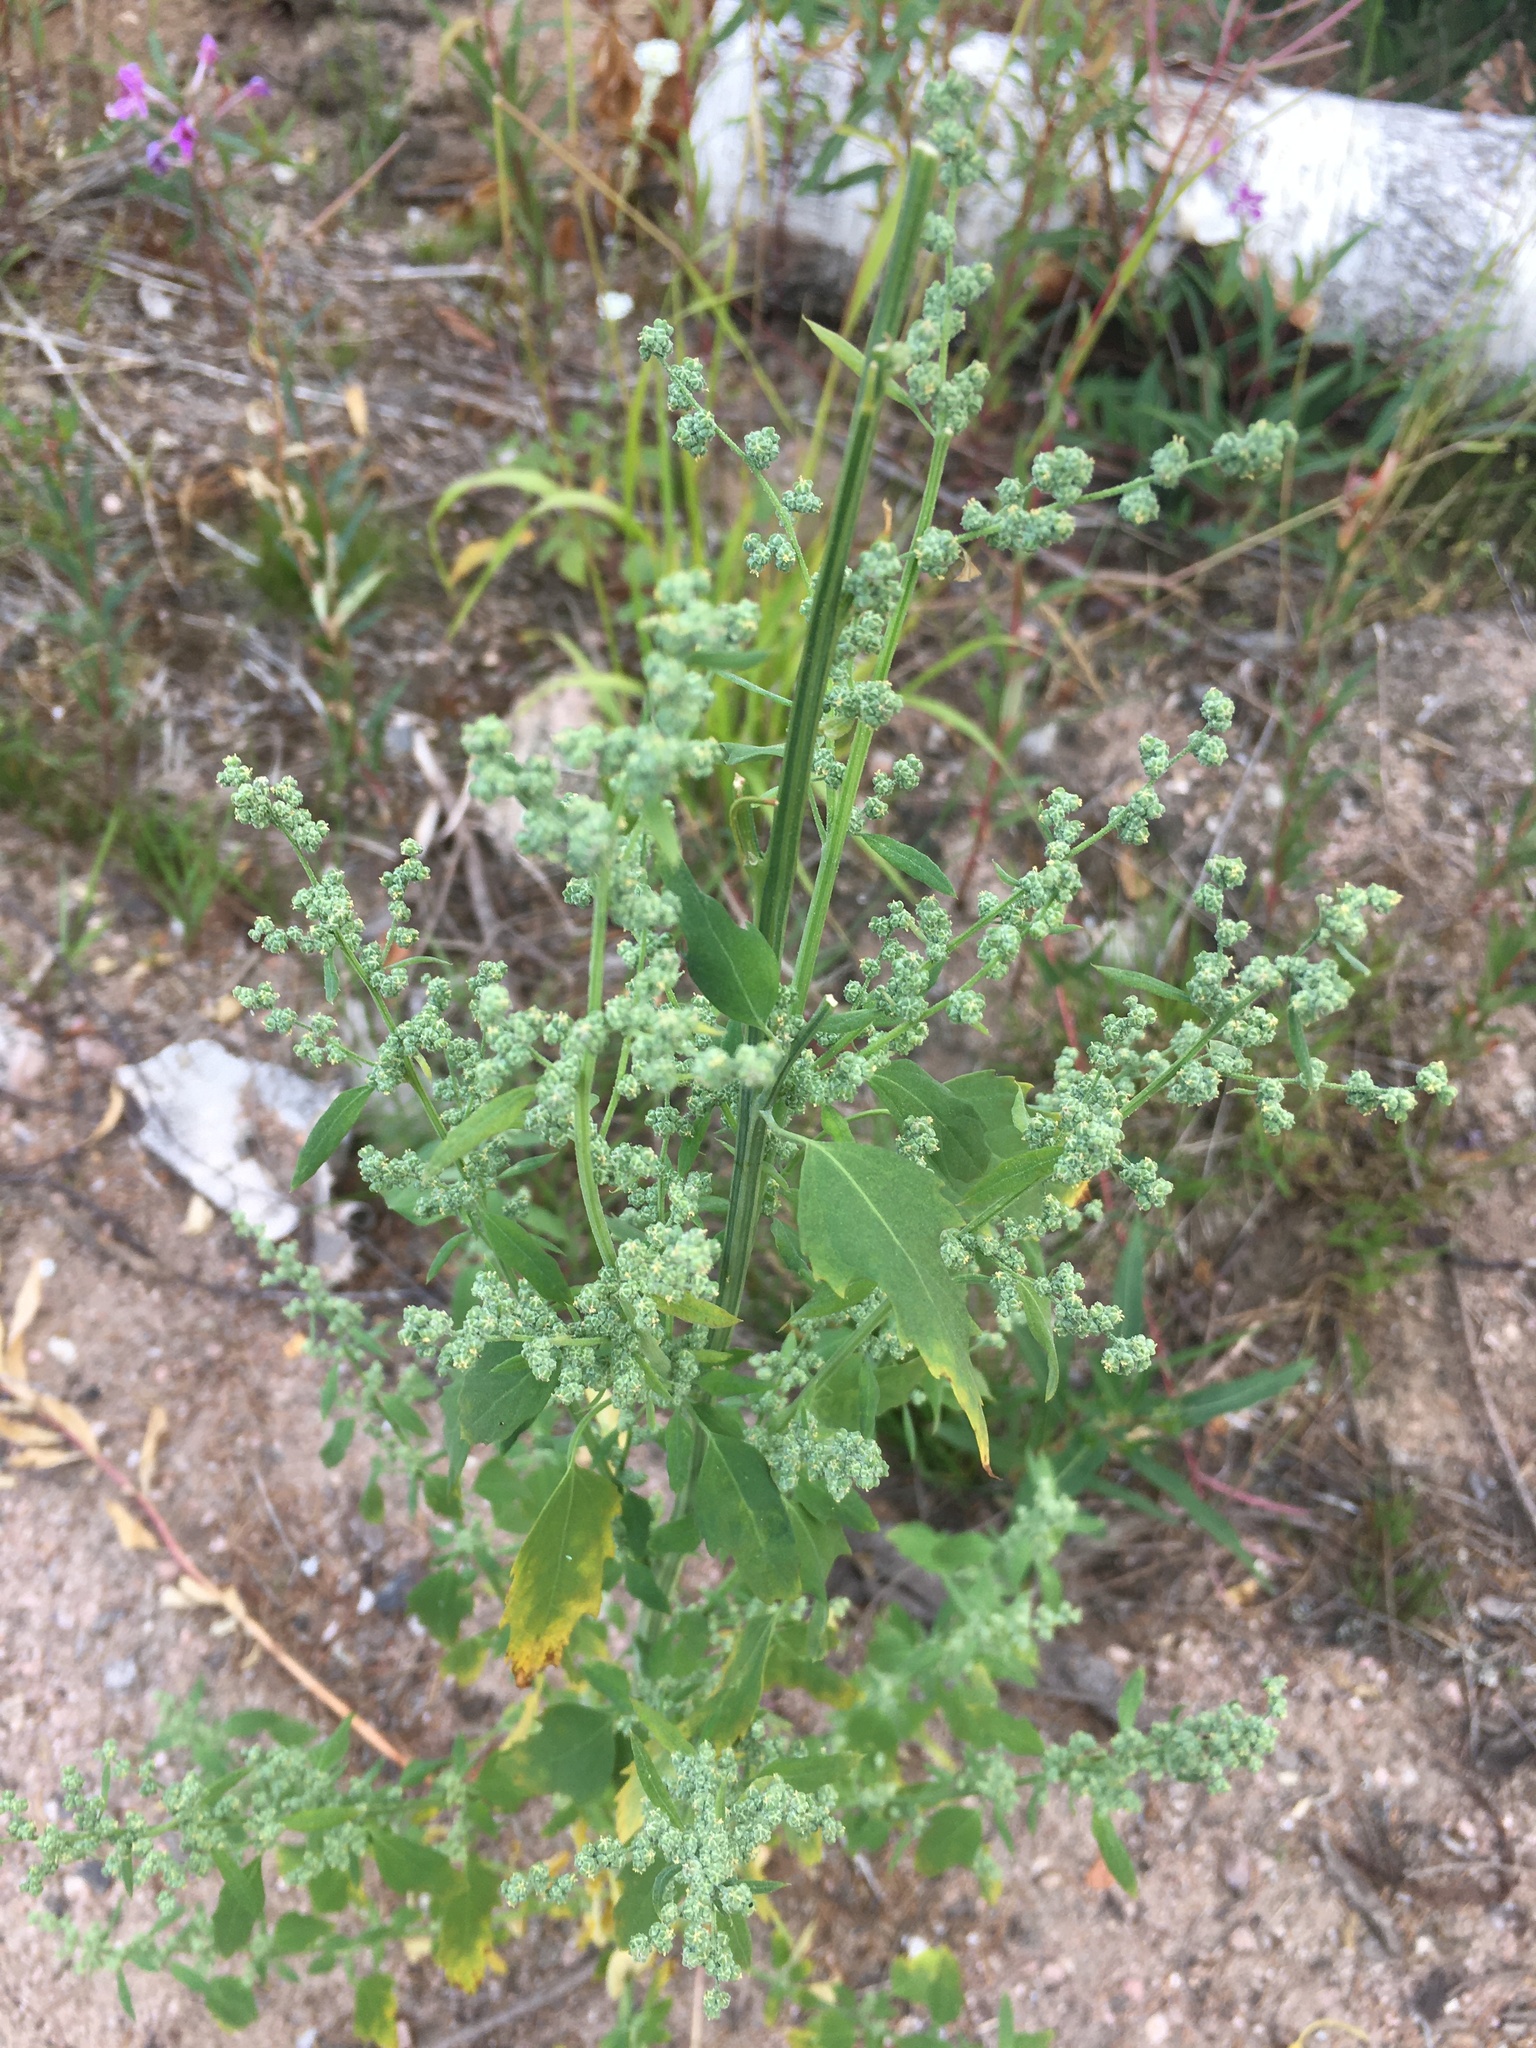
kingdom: Plantae
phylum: Tracheophyta
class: Magnoliopsida
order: Caryophyllales
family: Amaranthaceae
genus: Chenopodium
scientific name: Chenopodium album
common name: Fat-hen
